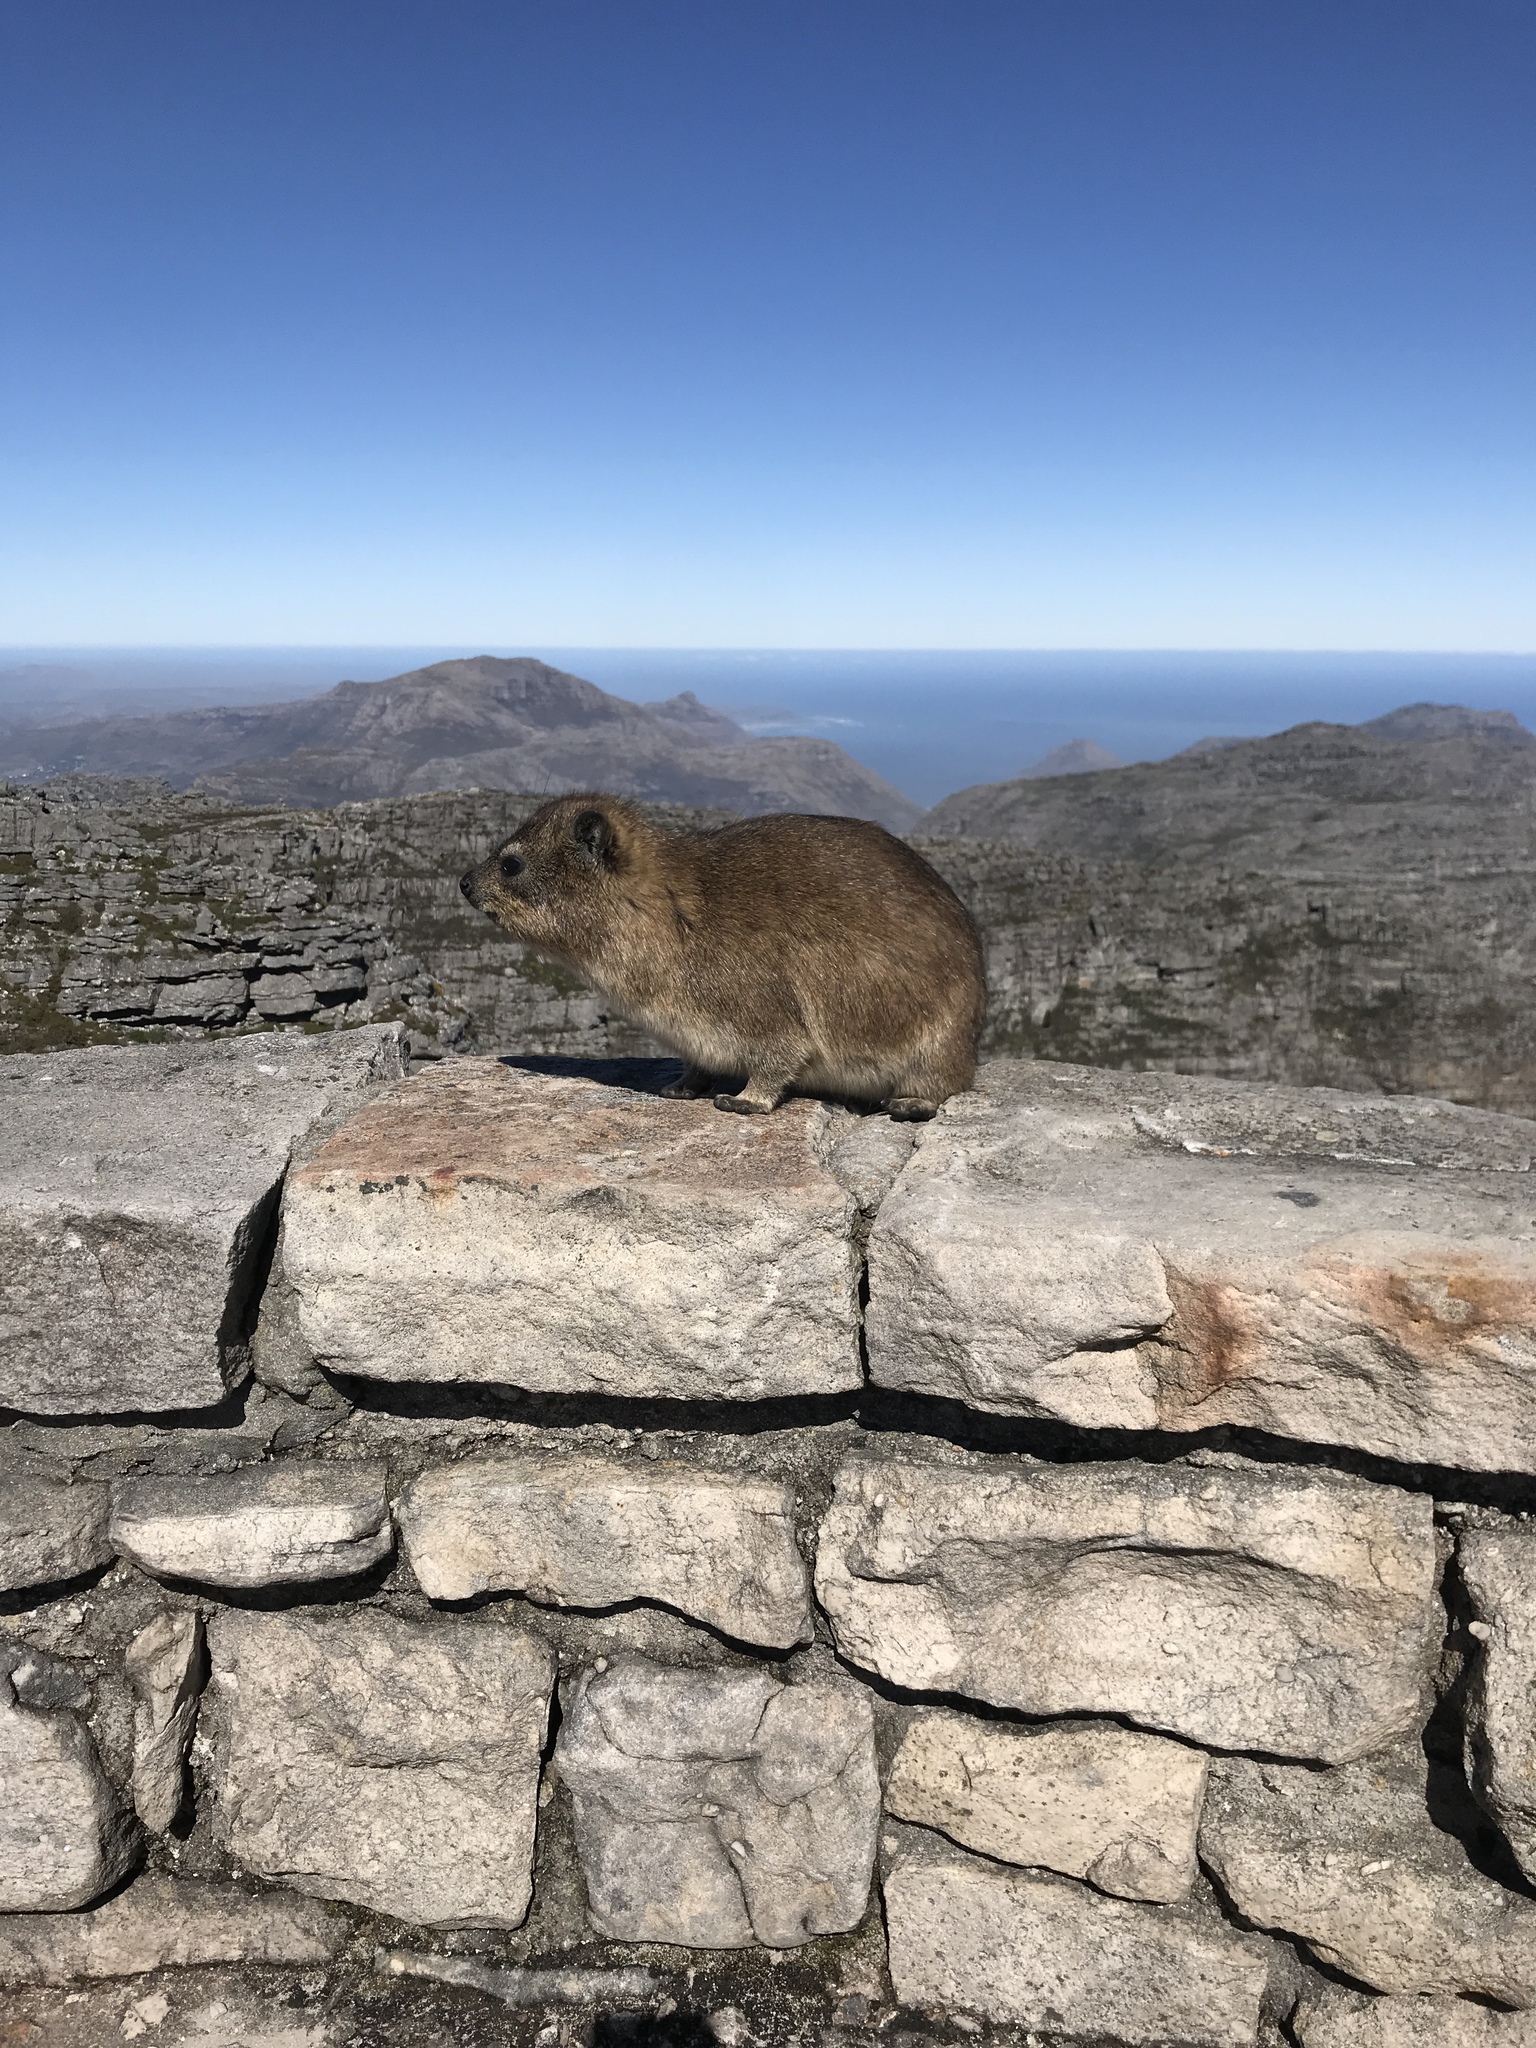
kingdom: Animalia
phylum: Chordata
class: Mammalia
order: Hyracoidea
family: Procaviidae
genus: Procavia
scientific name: Procavia capensis
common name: Rock hyrax
